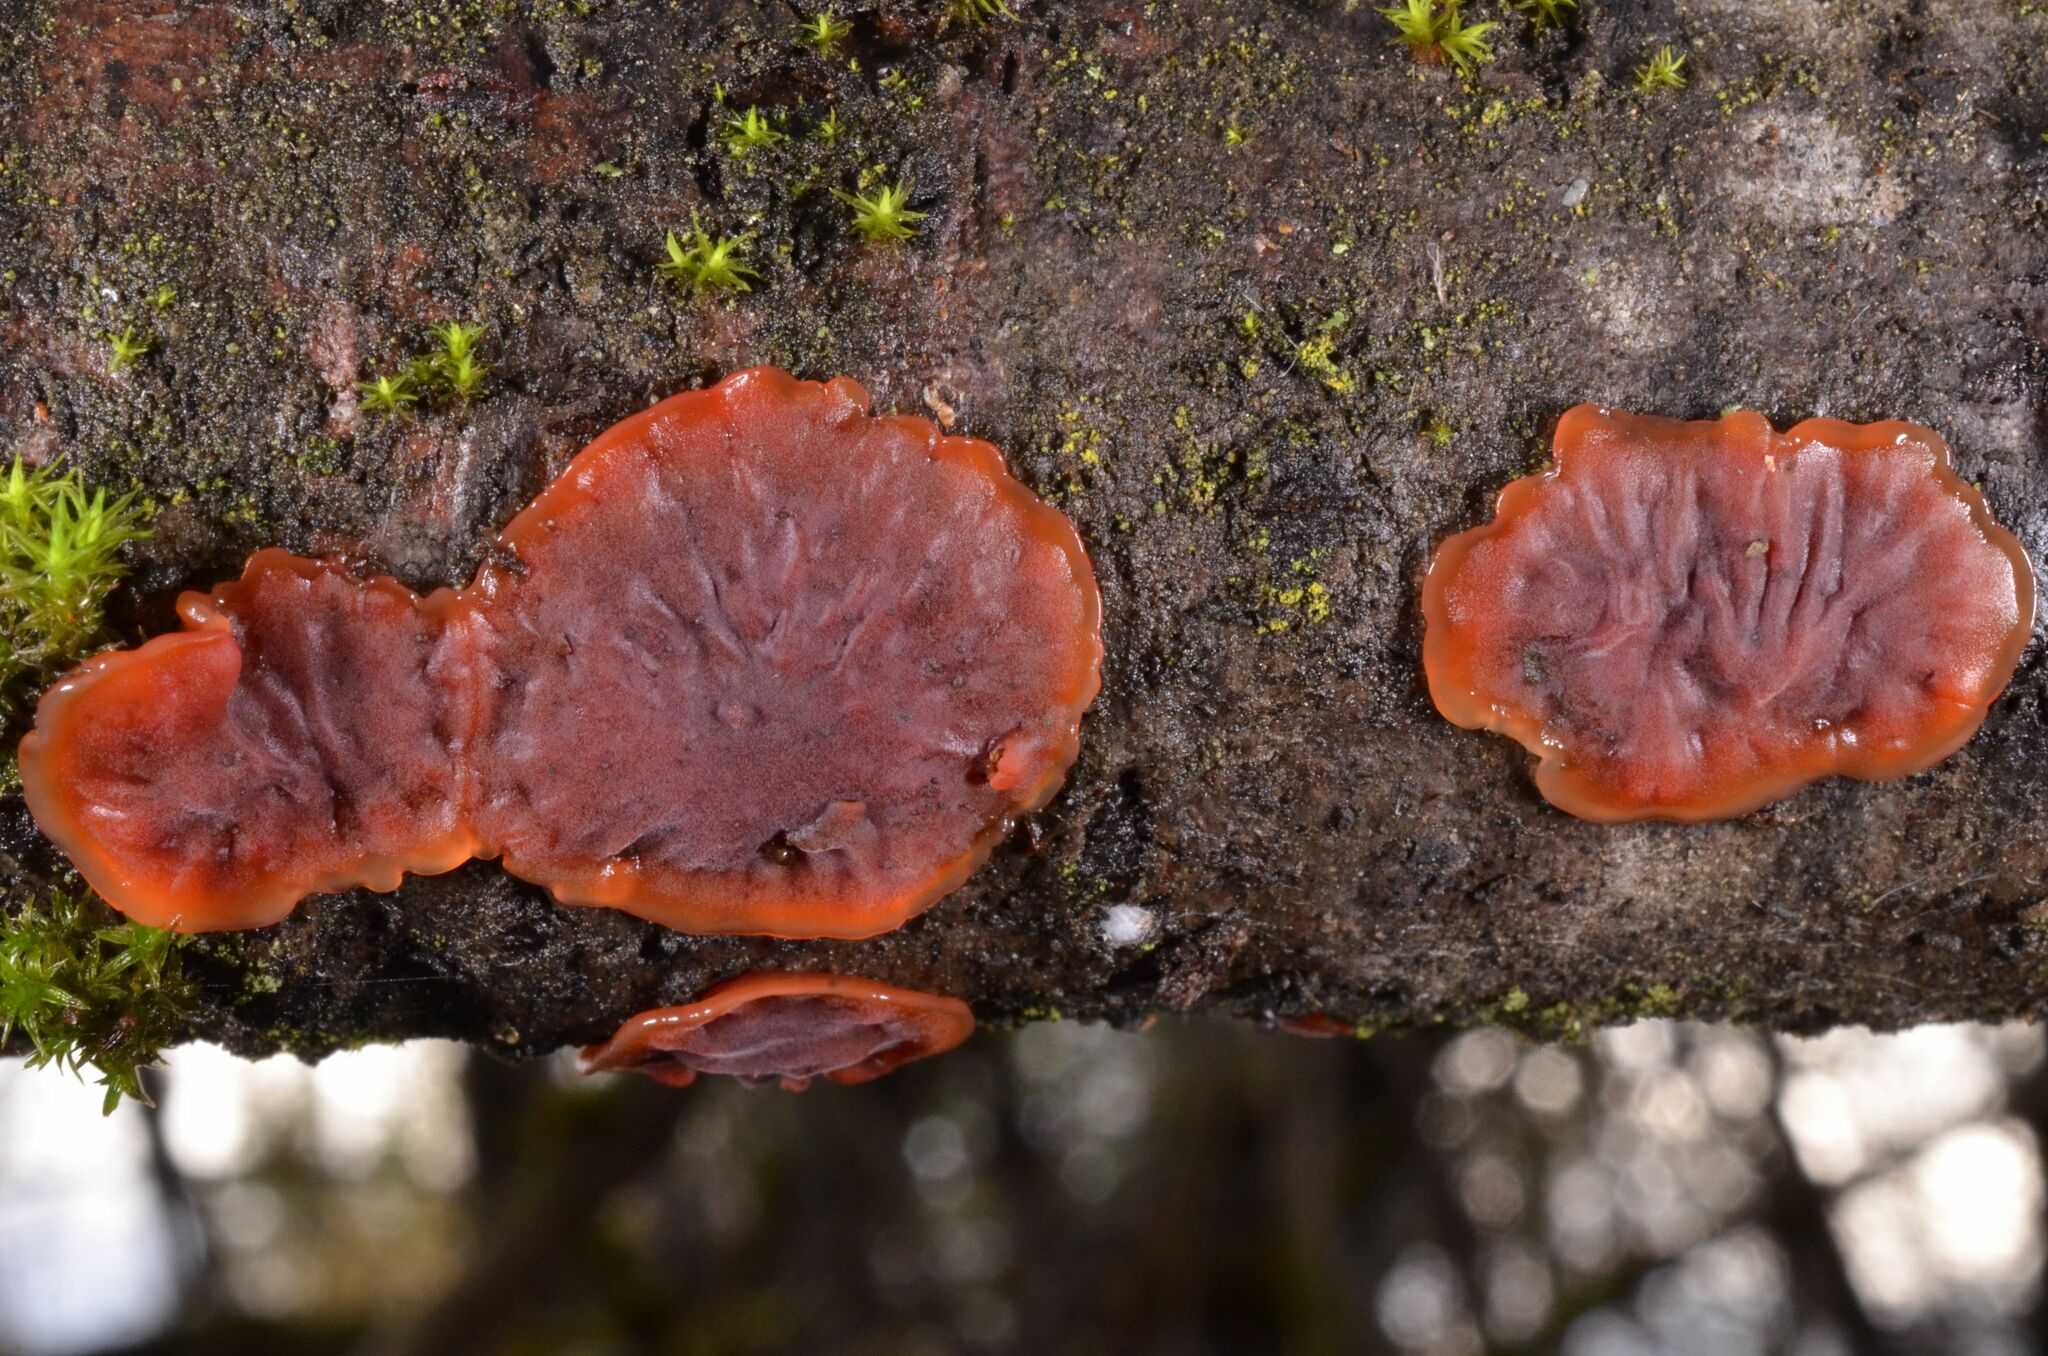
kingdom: Fungi
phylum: Basidiomycota
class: Agaricomycetes
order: Corticiales
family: Vuilleminiaceae
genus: Cytidia
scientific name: Cytidia salicina
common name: Scarlet splash
